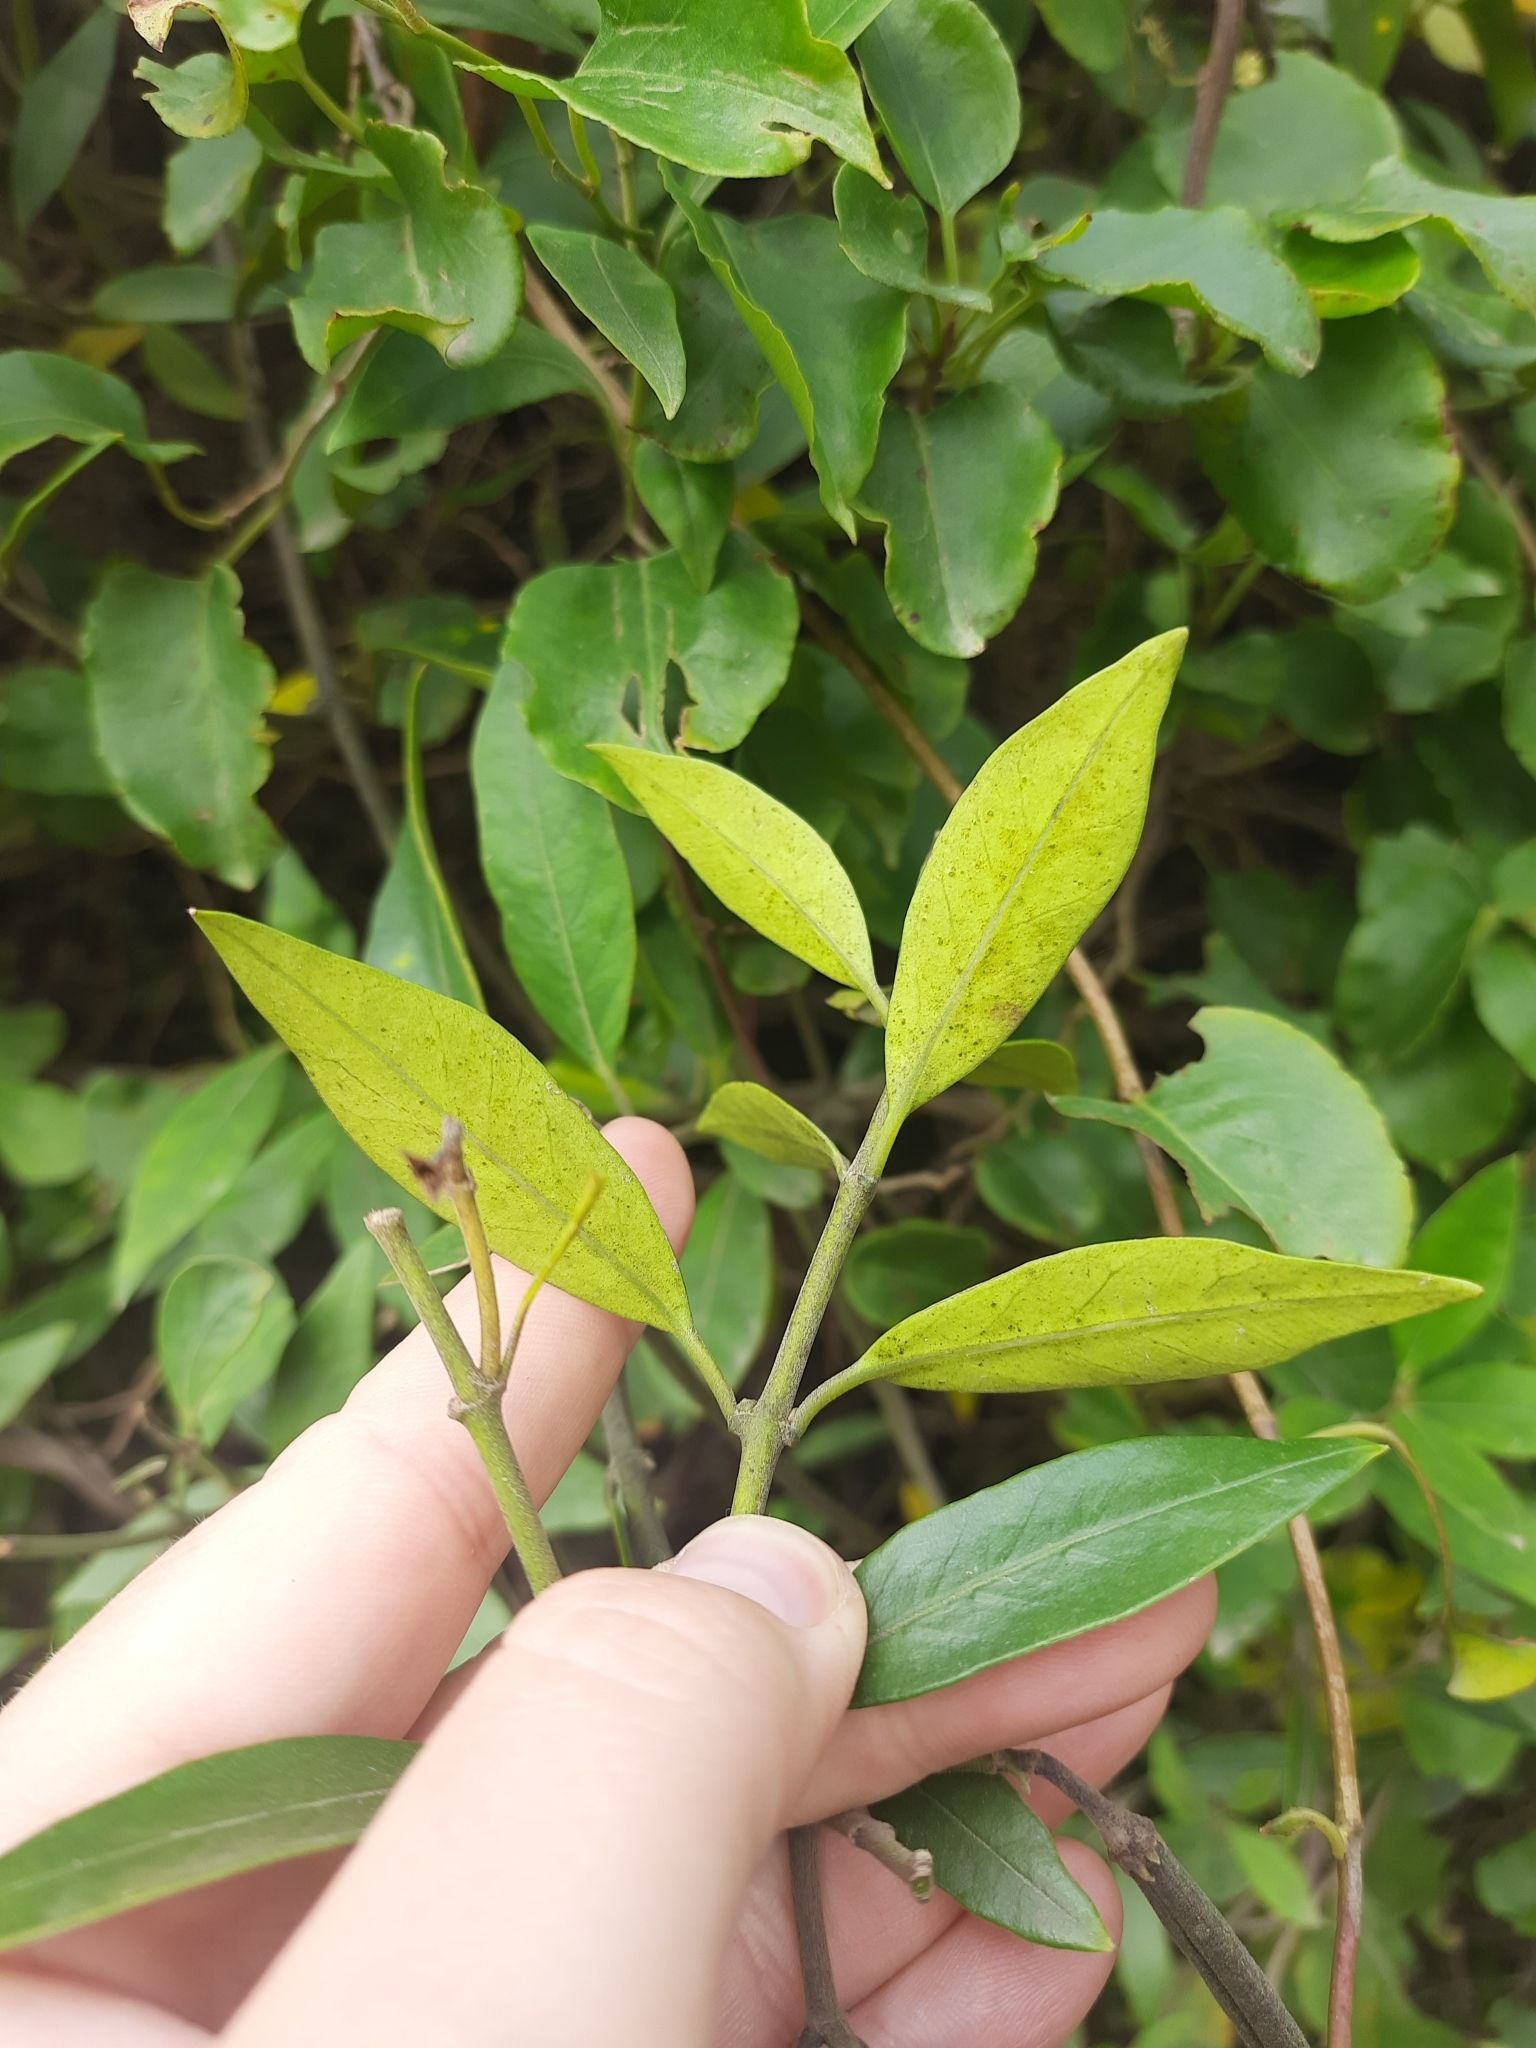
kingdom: Plantae
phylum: Tracheophyta
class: Magnoliopsida
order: Gentianales
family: Apocynaceae
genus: Parsonsia
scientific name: Parsonsia heterophylla
